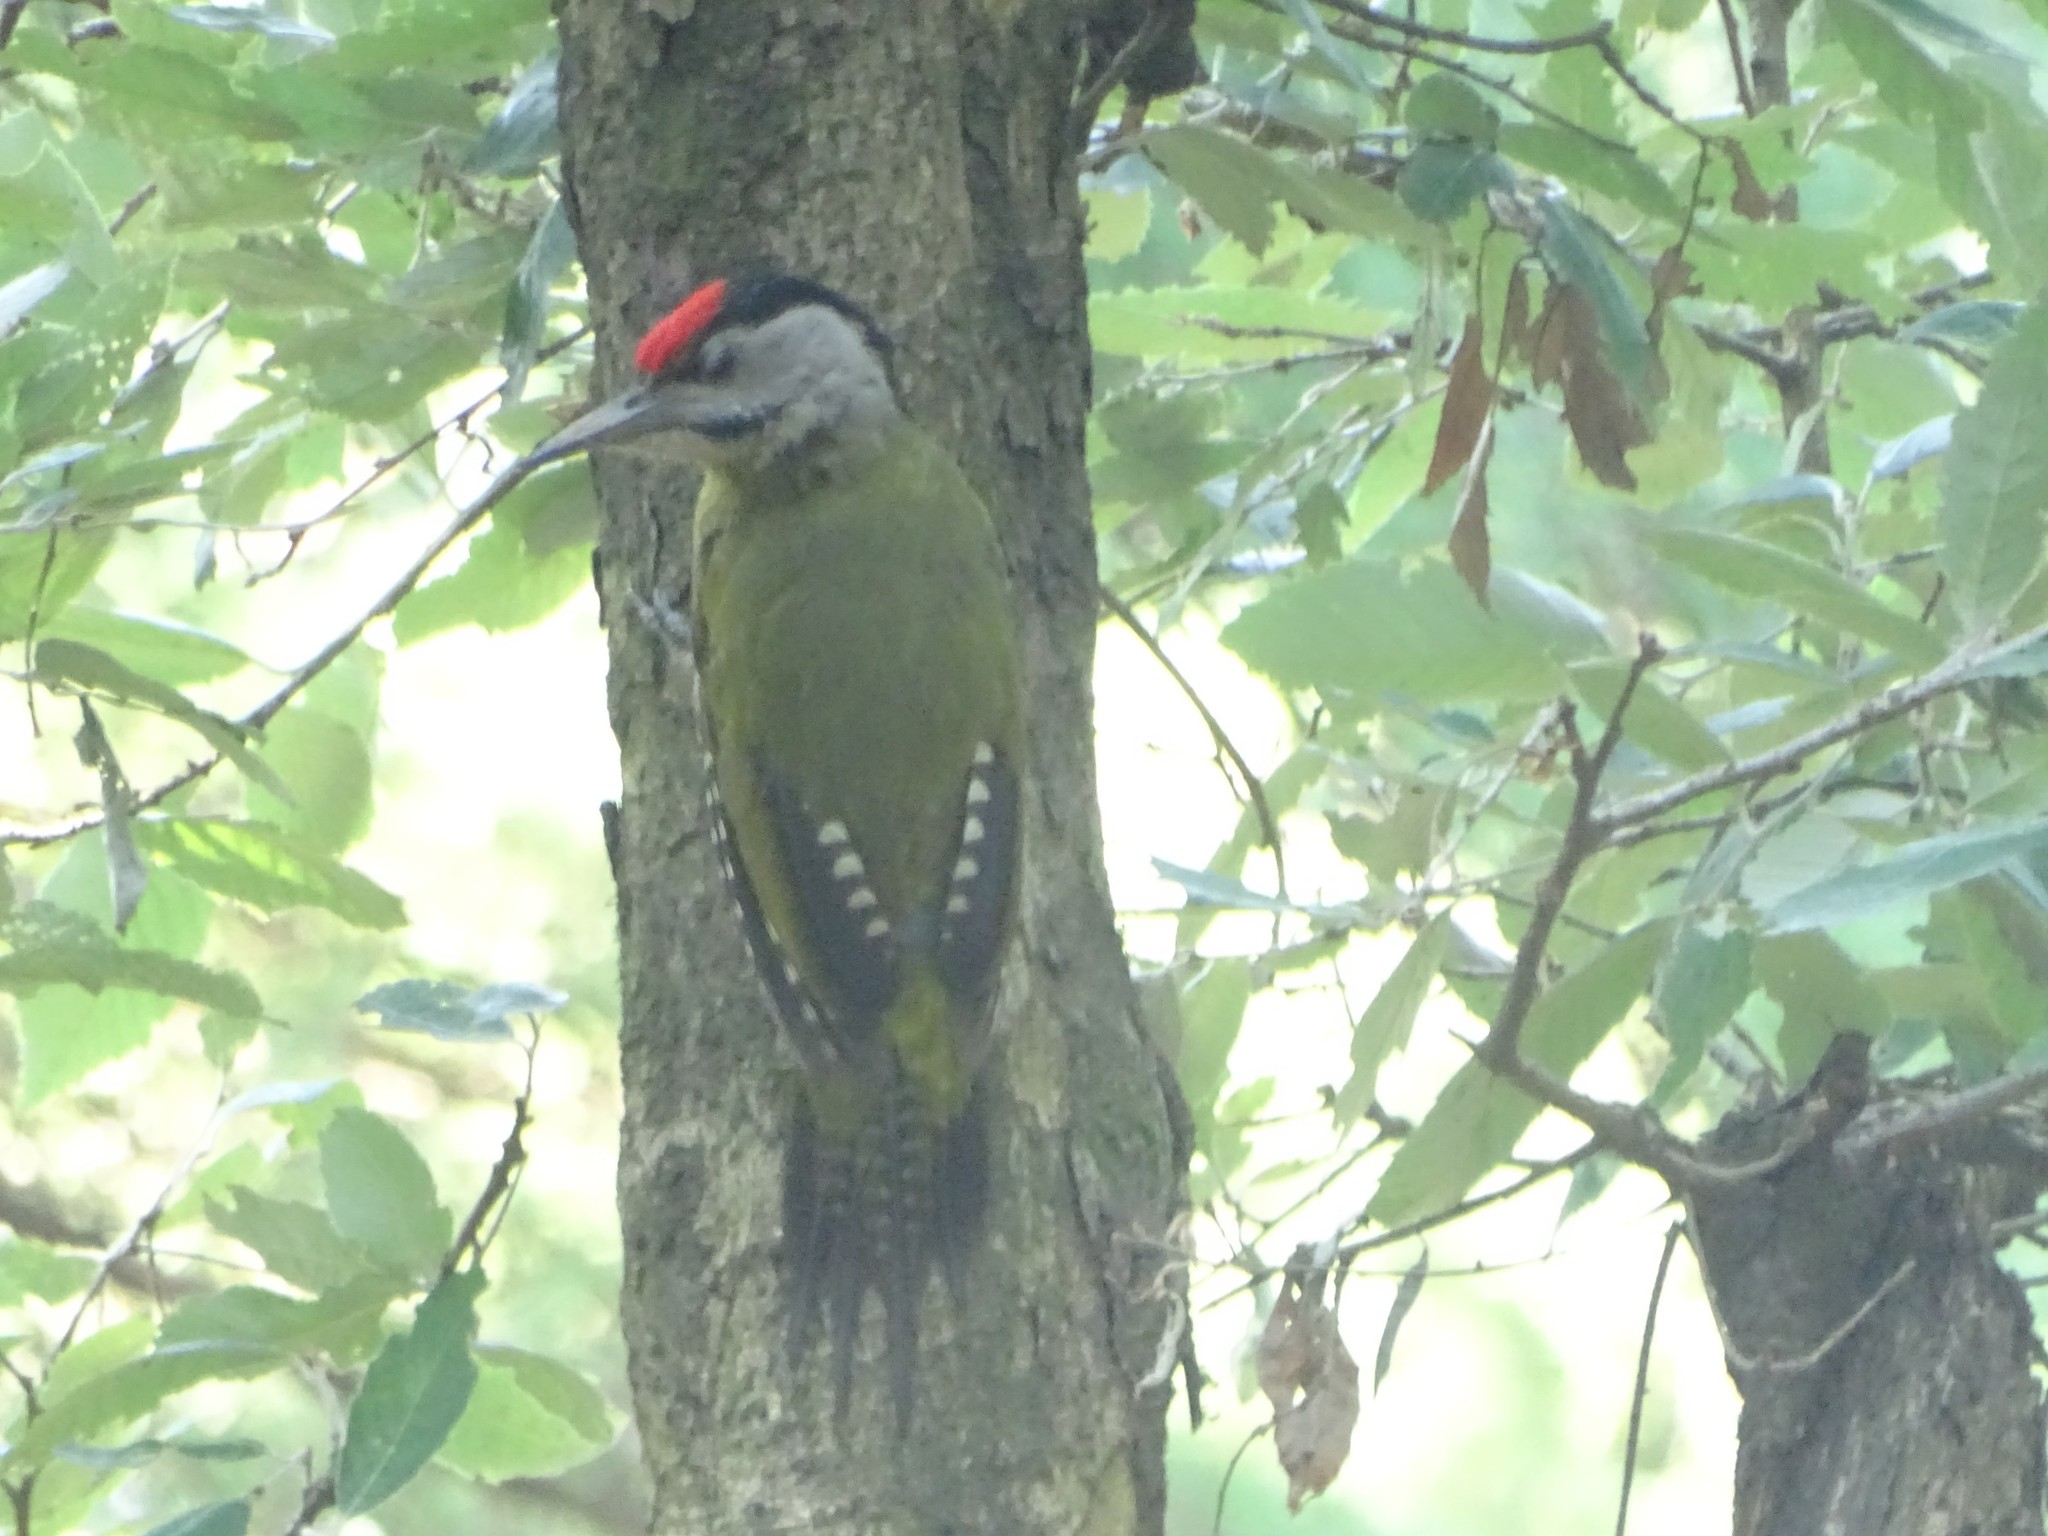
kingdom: Animalia
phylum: Chordata
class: Aves
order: Piciformes
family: Picidae
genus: Picus
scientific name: Picus canus
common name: Grey-headed woodpecker
